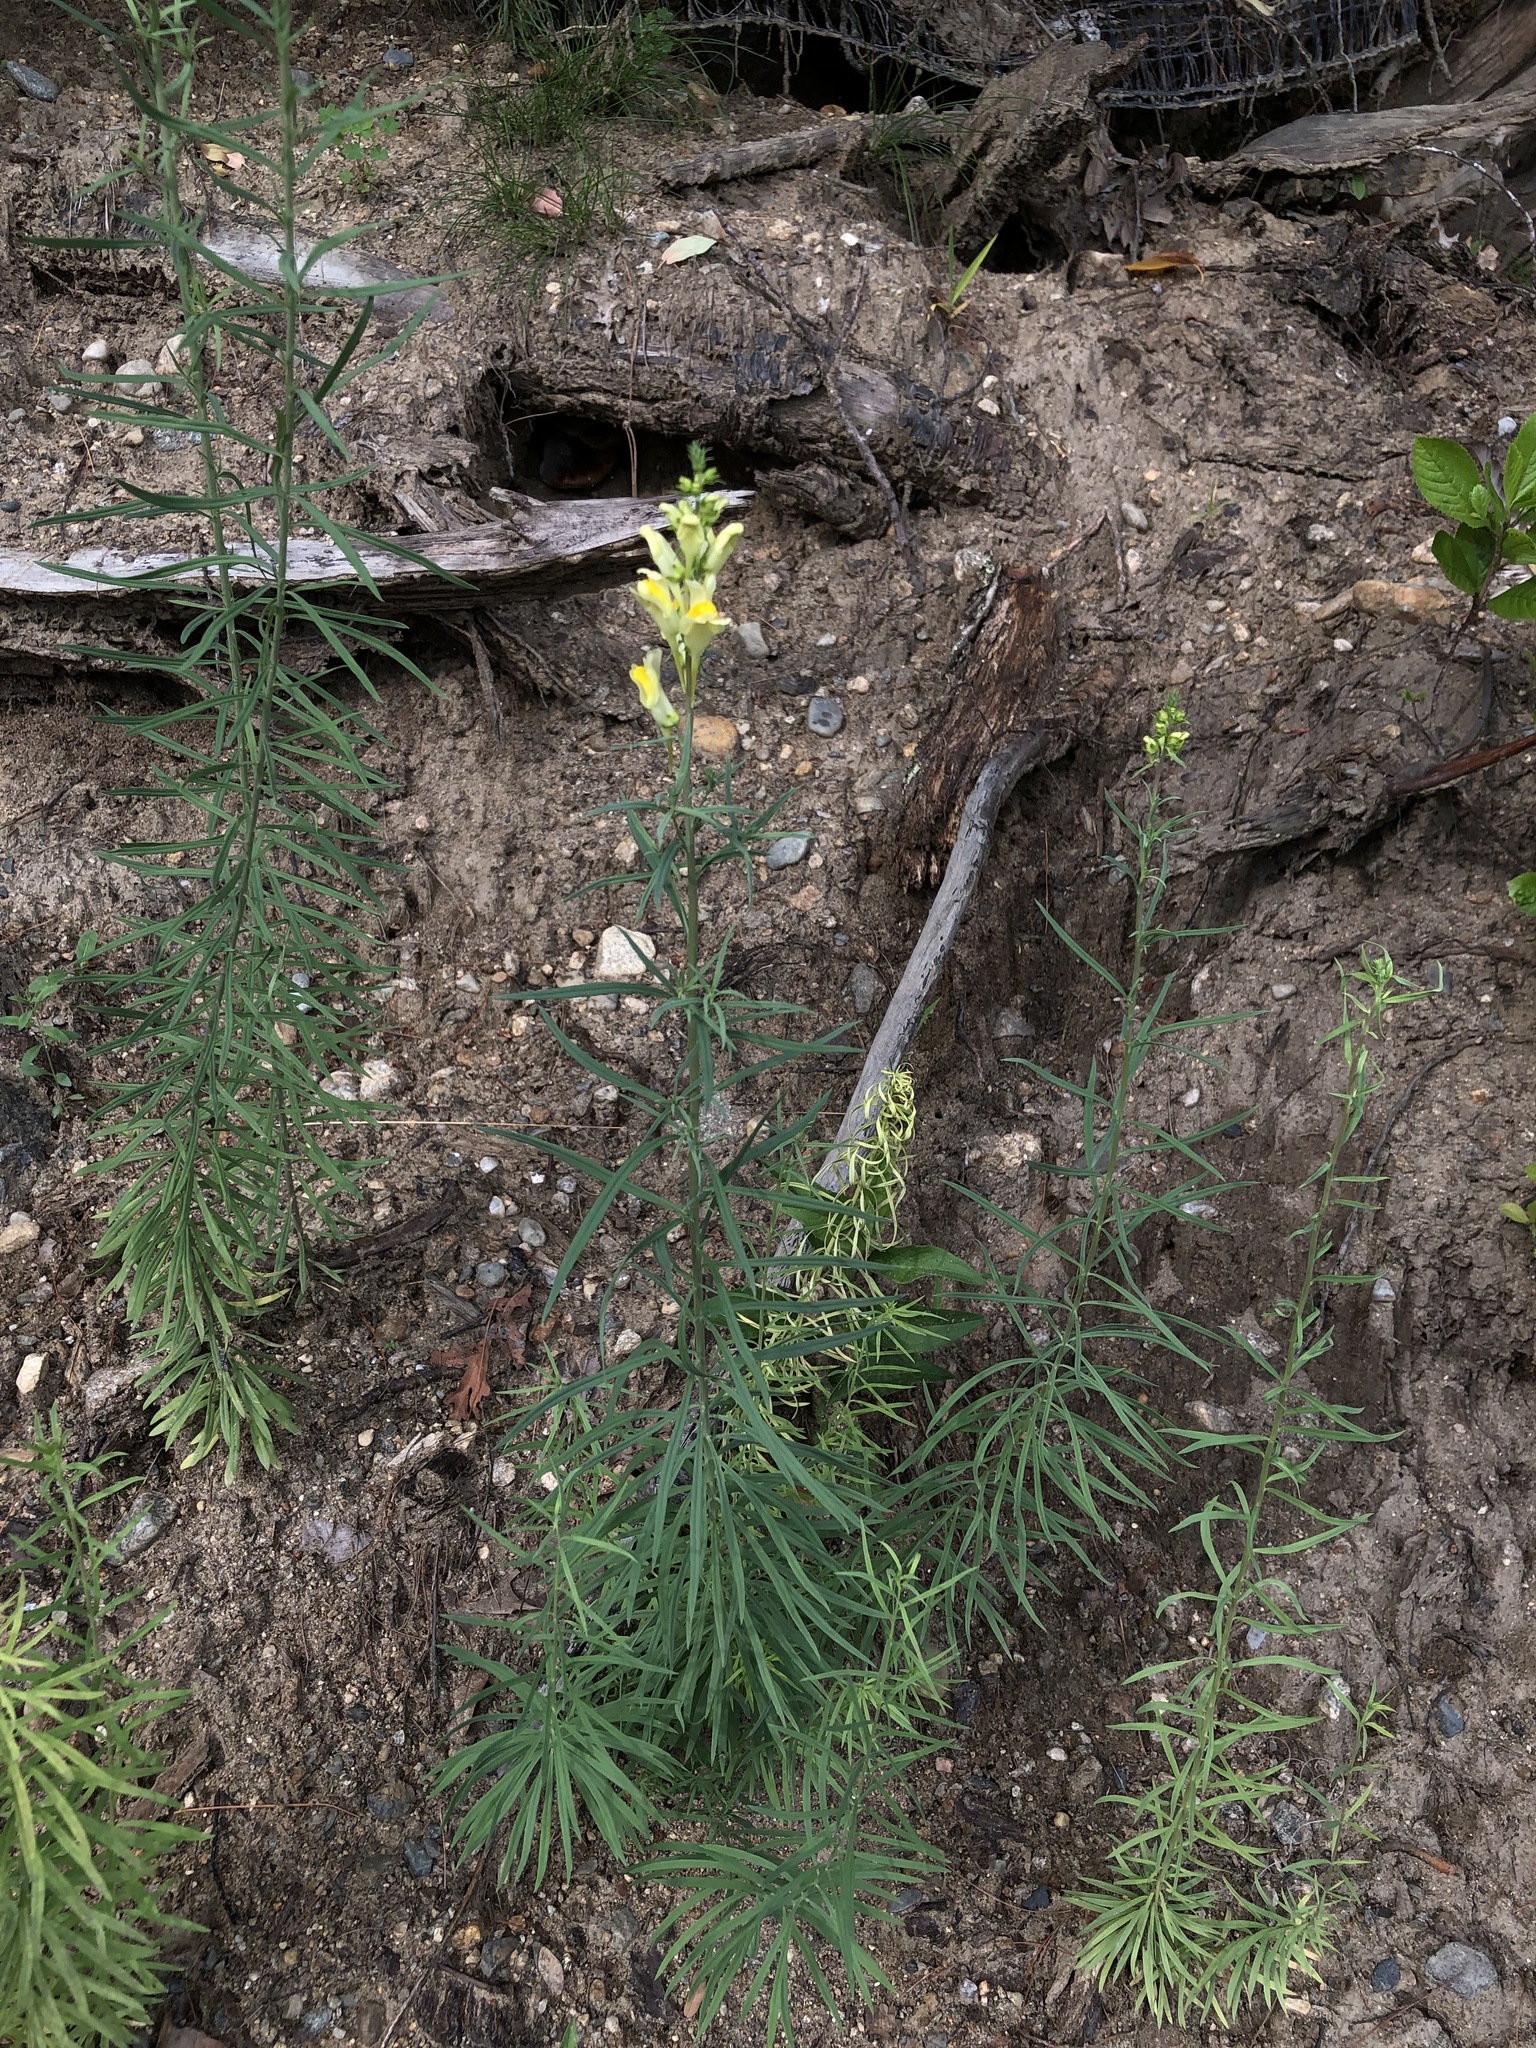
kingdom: Plantae
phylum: Tracheophyta
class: Magnoliopsida
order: Lamiales
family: Plantaginaceae
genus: Linaria
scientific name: Linaria vulgaris
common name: Butter and eggs
